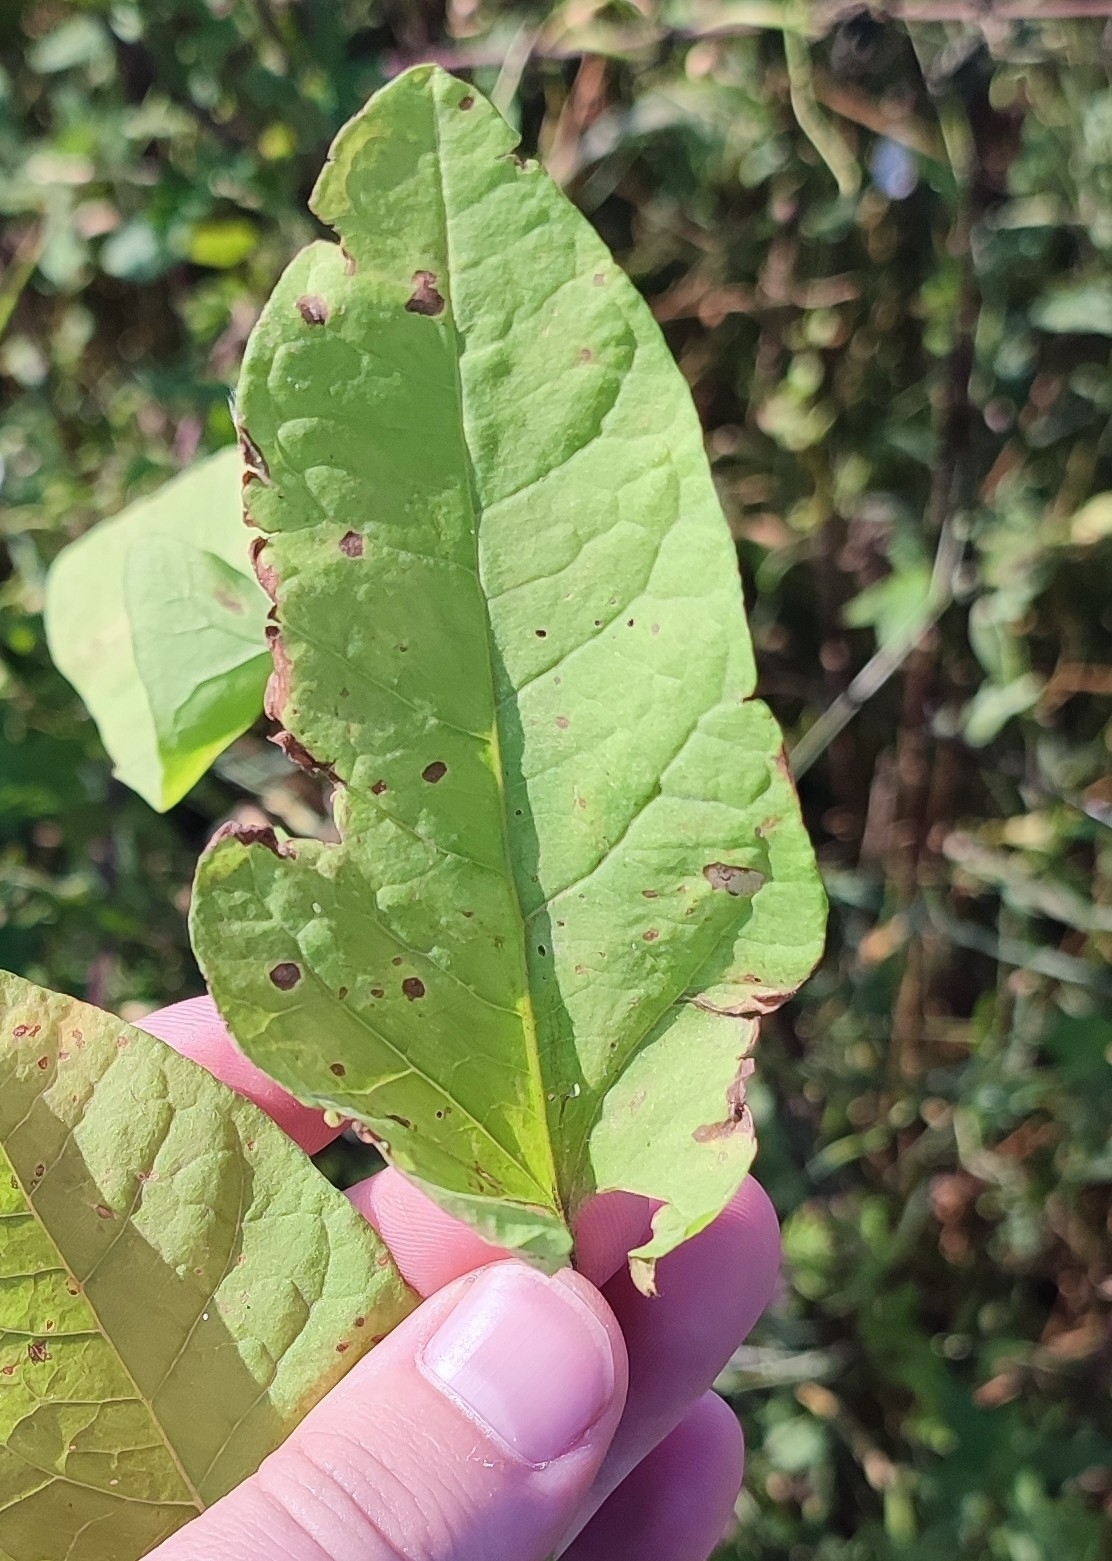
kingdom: Plantae
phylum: Tracheophyta
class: Magnoliopsida
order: Solanales
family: Convolvulaceae
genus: Convolvulus
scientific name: Convolvulus arvensis
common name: Field bindweed
